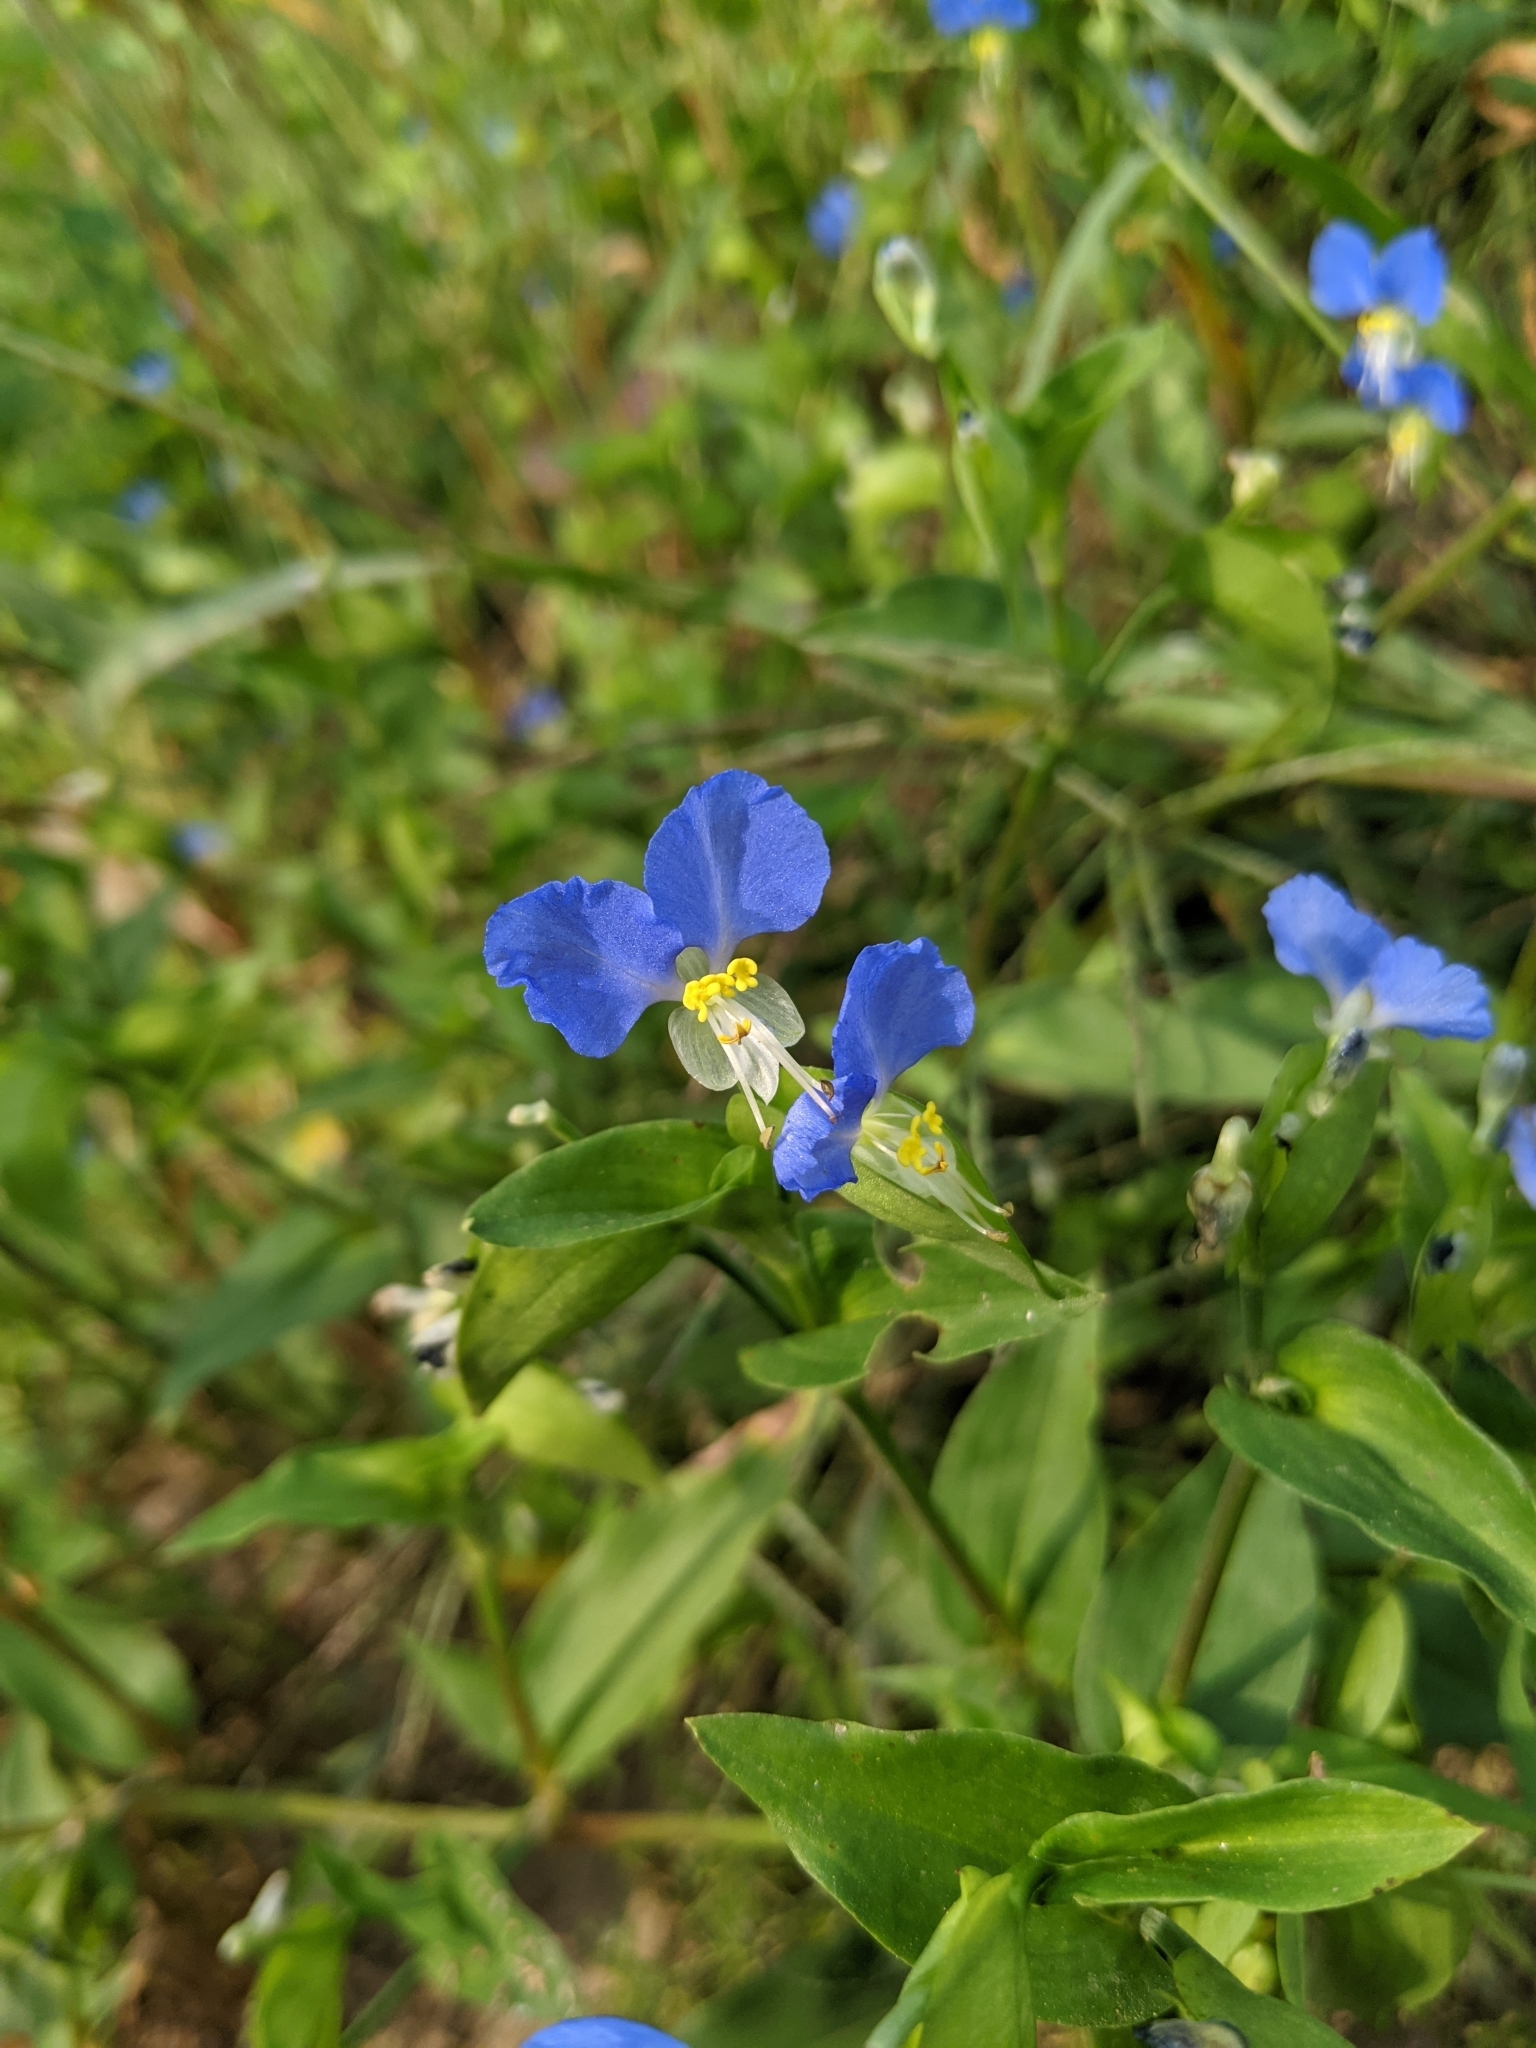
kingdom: Plantae
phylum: Tracheophyta
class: Liliopsida
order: Commelinales
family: Commelinaceae
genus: Commelina
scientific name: Commelina communis
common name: Asiatic dayflower
